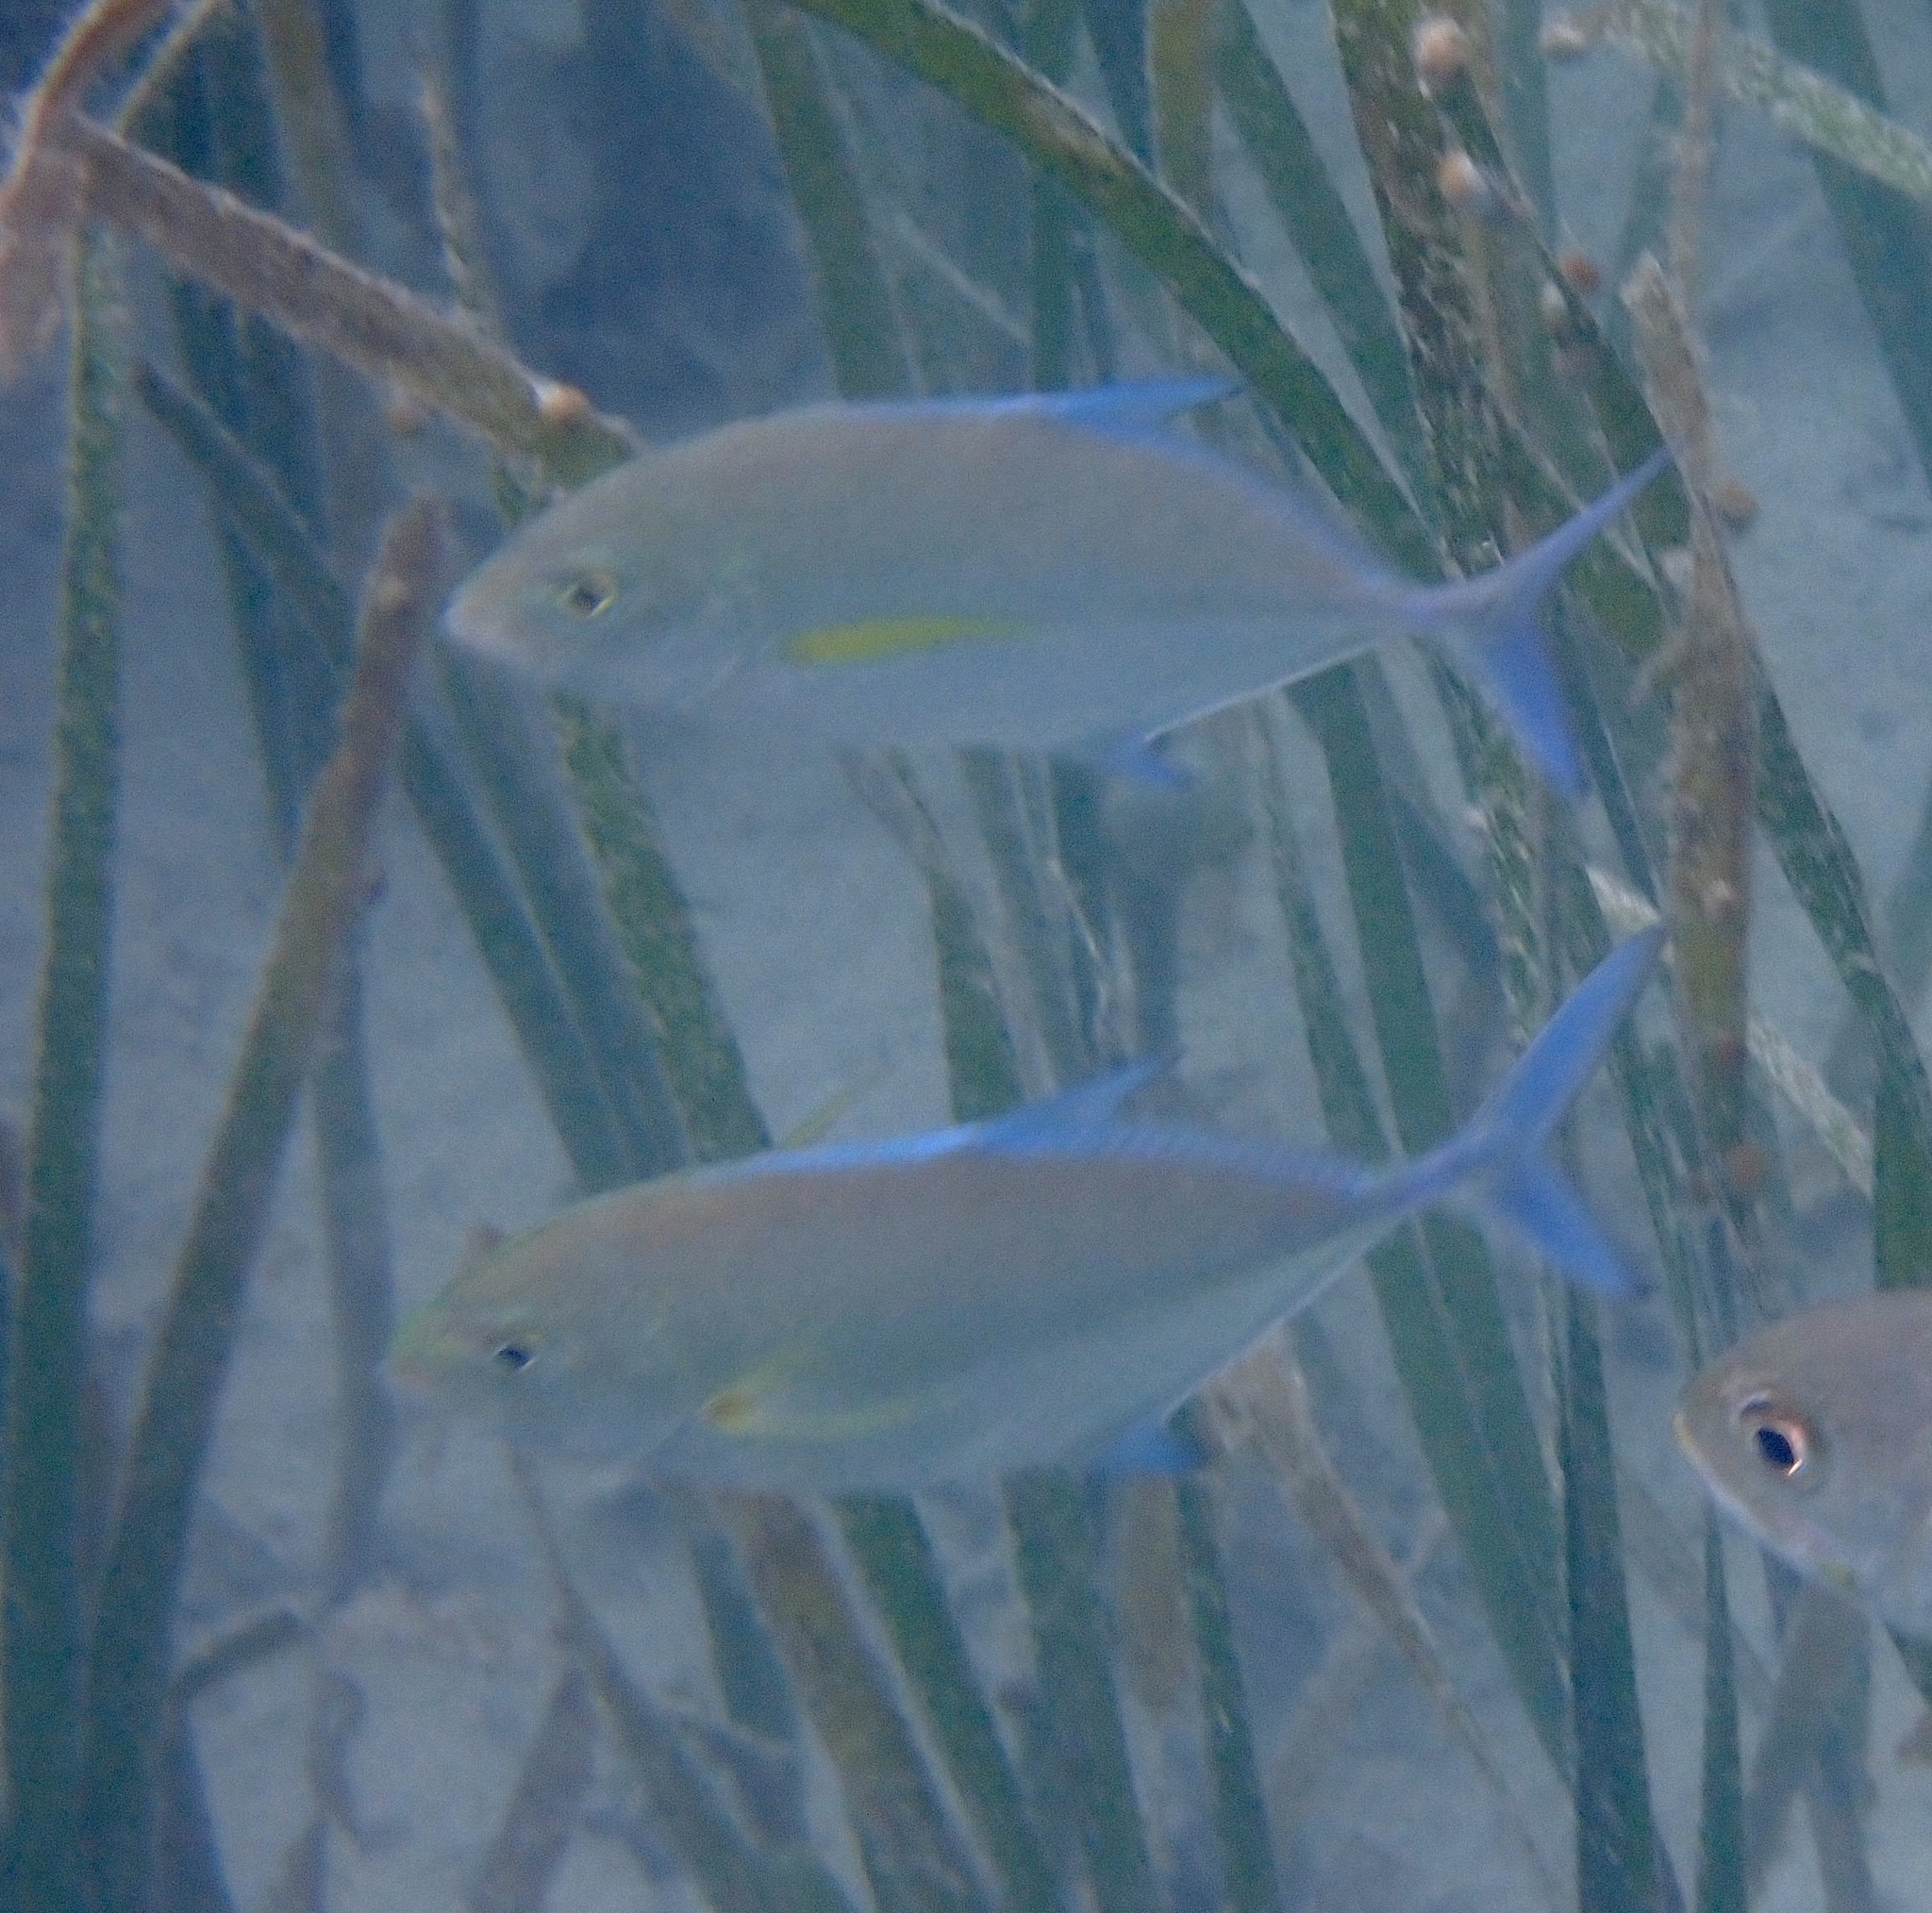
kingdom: Animalia
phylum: Chordata
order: Perciformes
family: Carangidae
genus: Caranx
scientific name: Caranx melampygus
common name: Bluefin trevally
